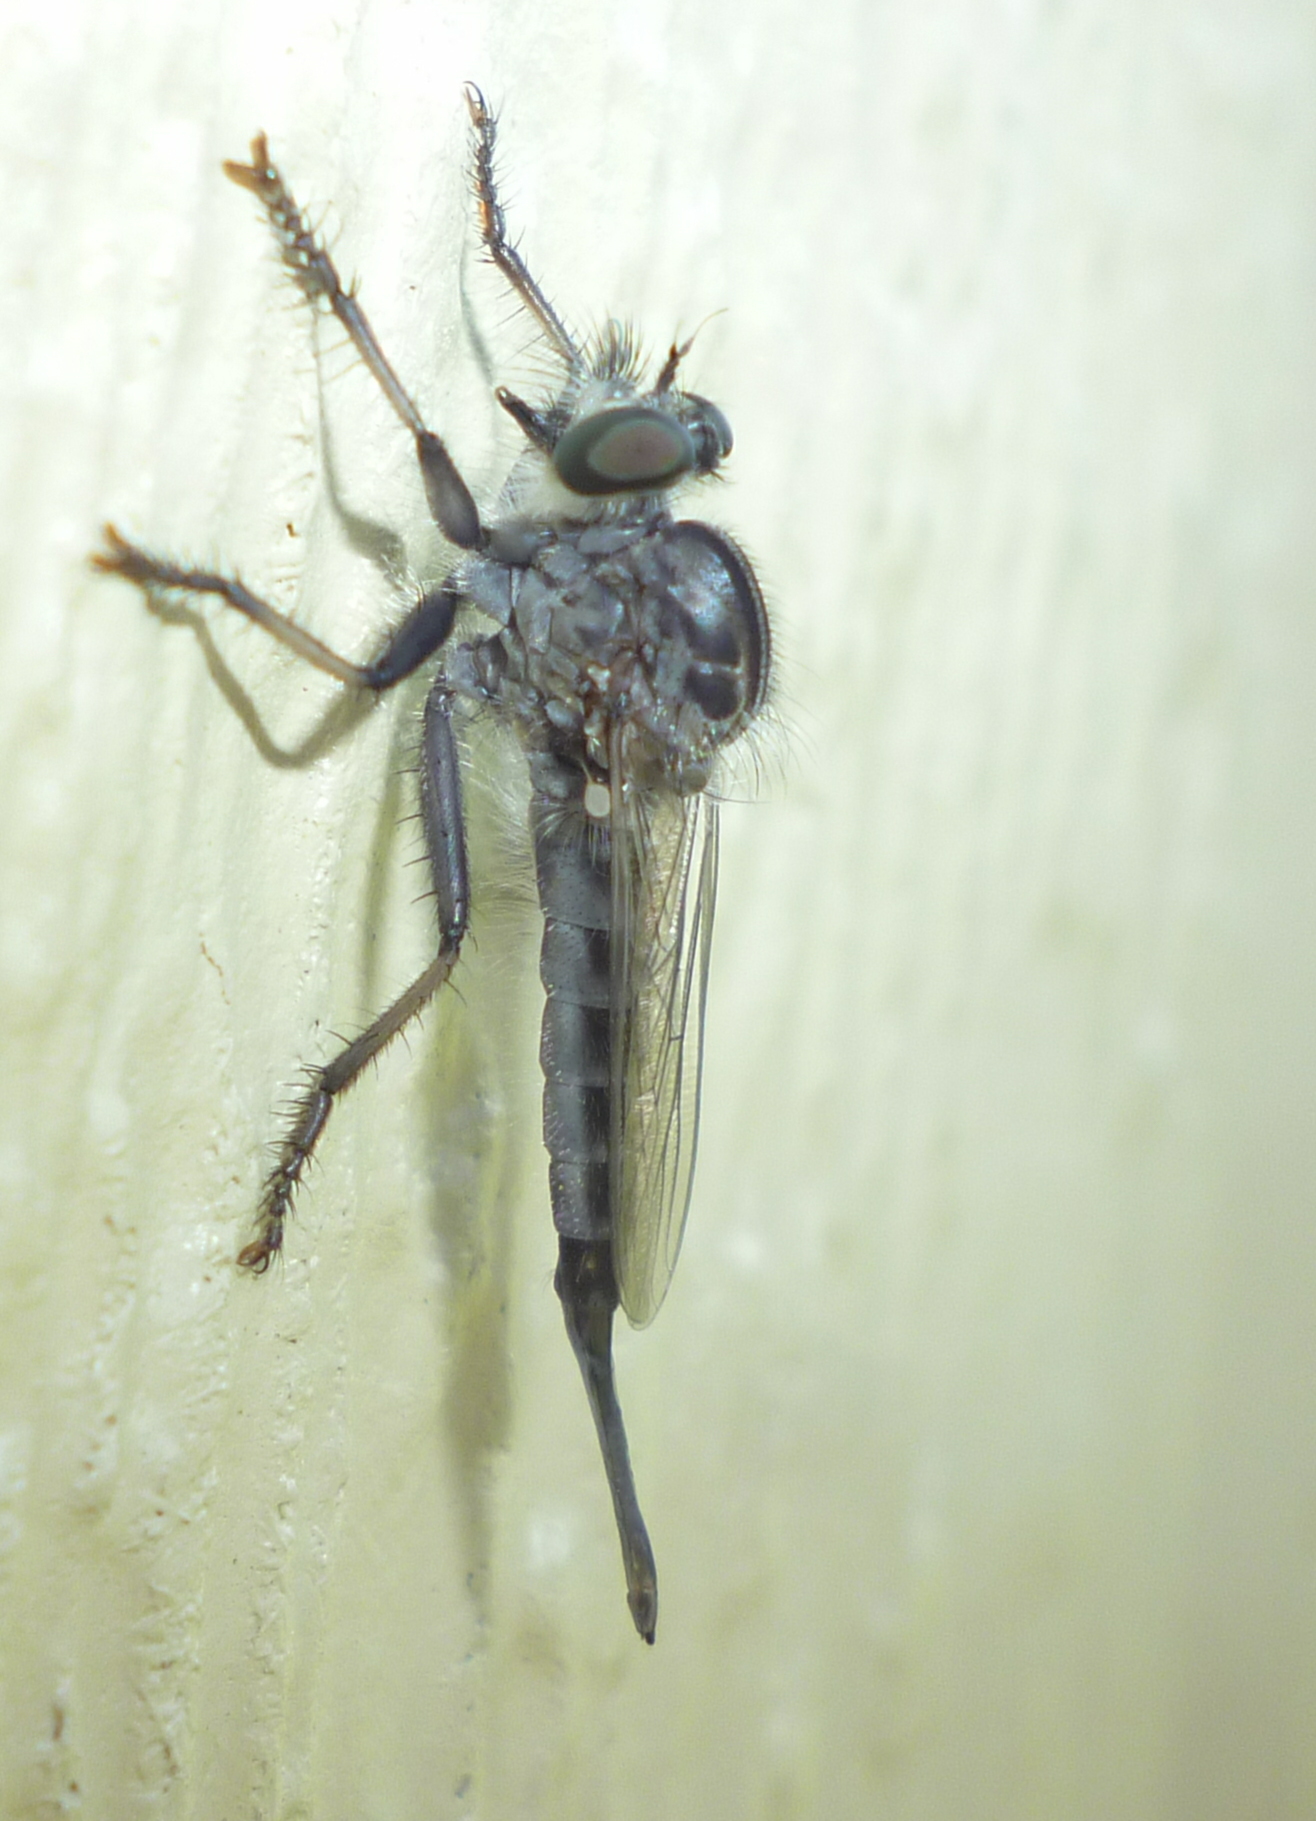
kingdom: Animalia
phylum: Arthropoda
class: Insecta
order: Diptera
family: Asilidae
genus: Efferia
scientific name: Efferia aestuans
